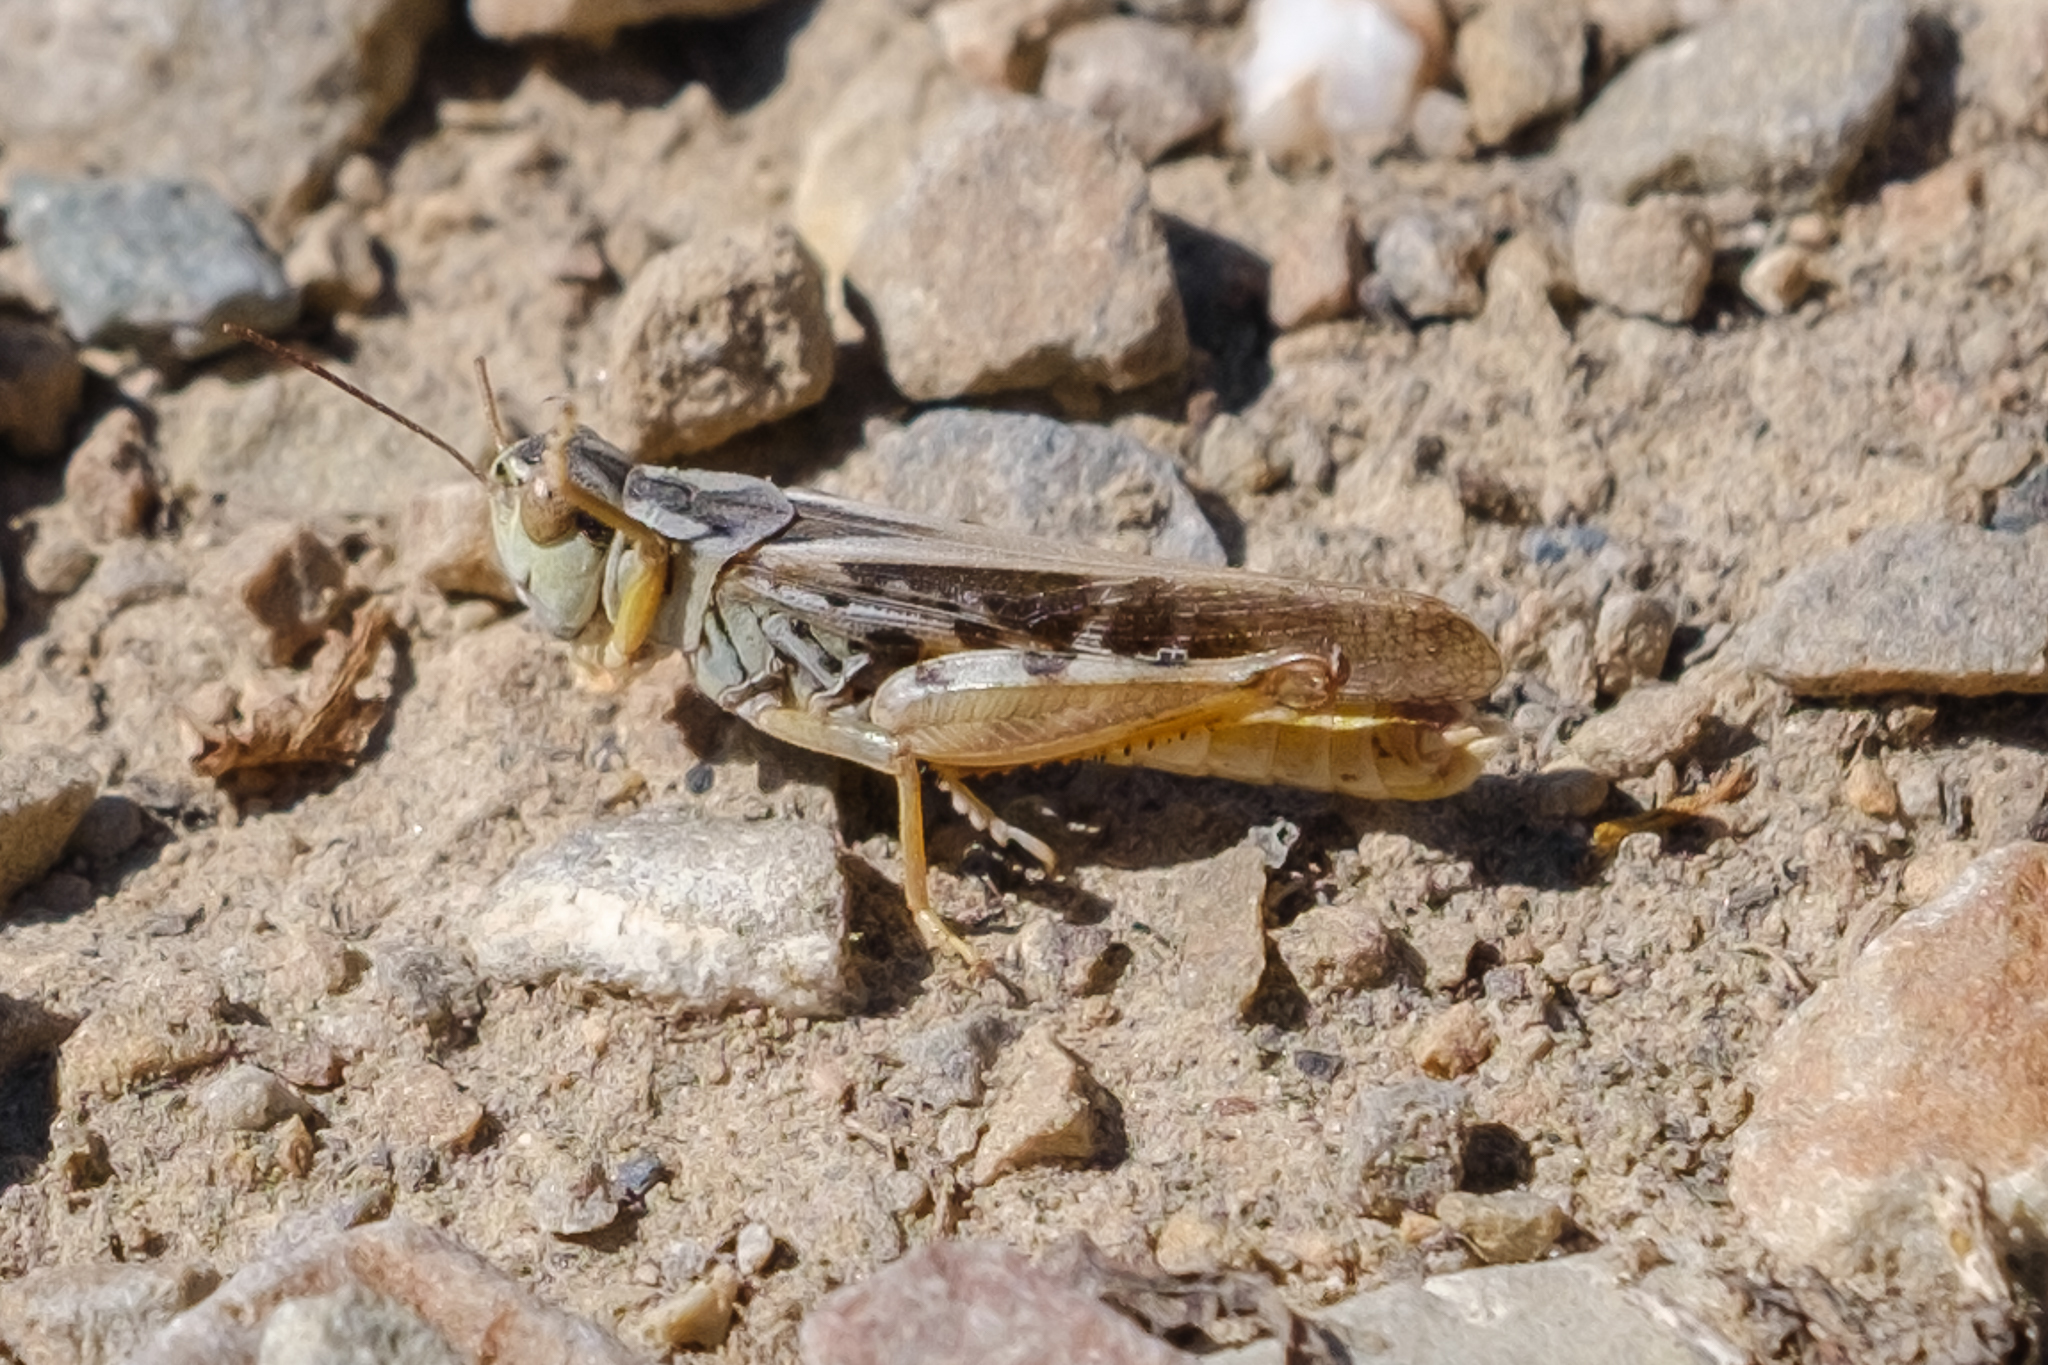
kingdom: Animalia
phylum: Arthropoda
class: Insecta
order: Orthoptera
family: Acrididae
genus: Camnula
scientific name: Camnula pellucida
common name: Clear-winged grasshopper
